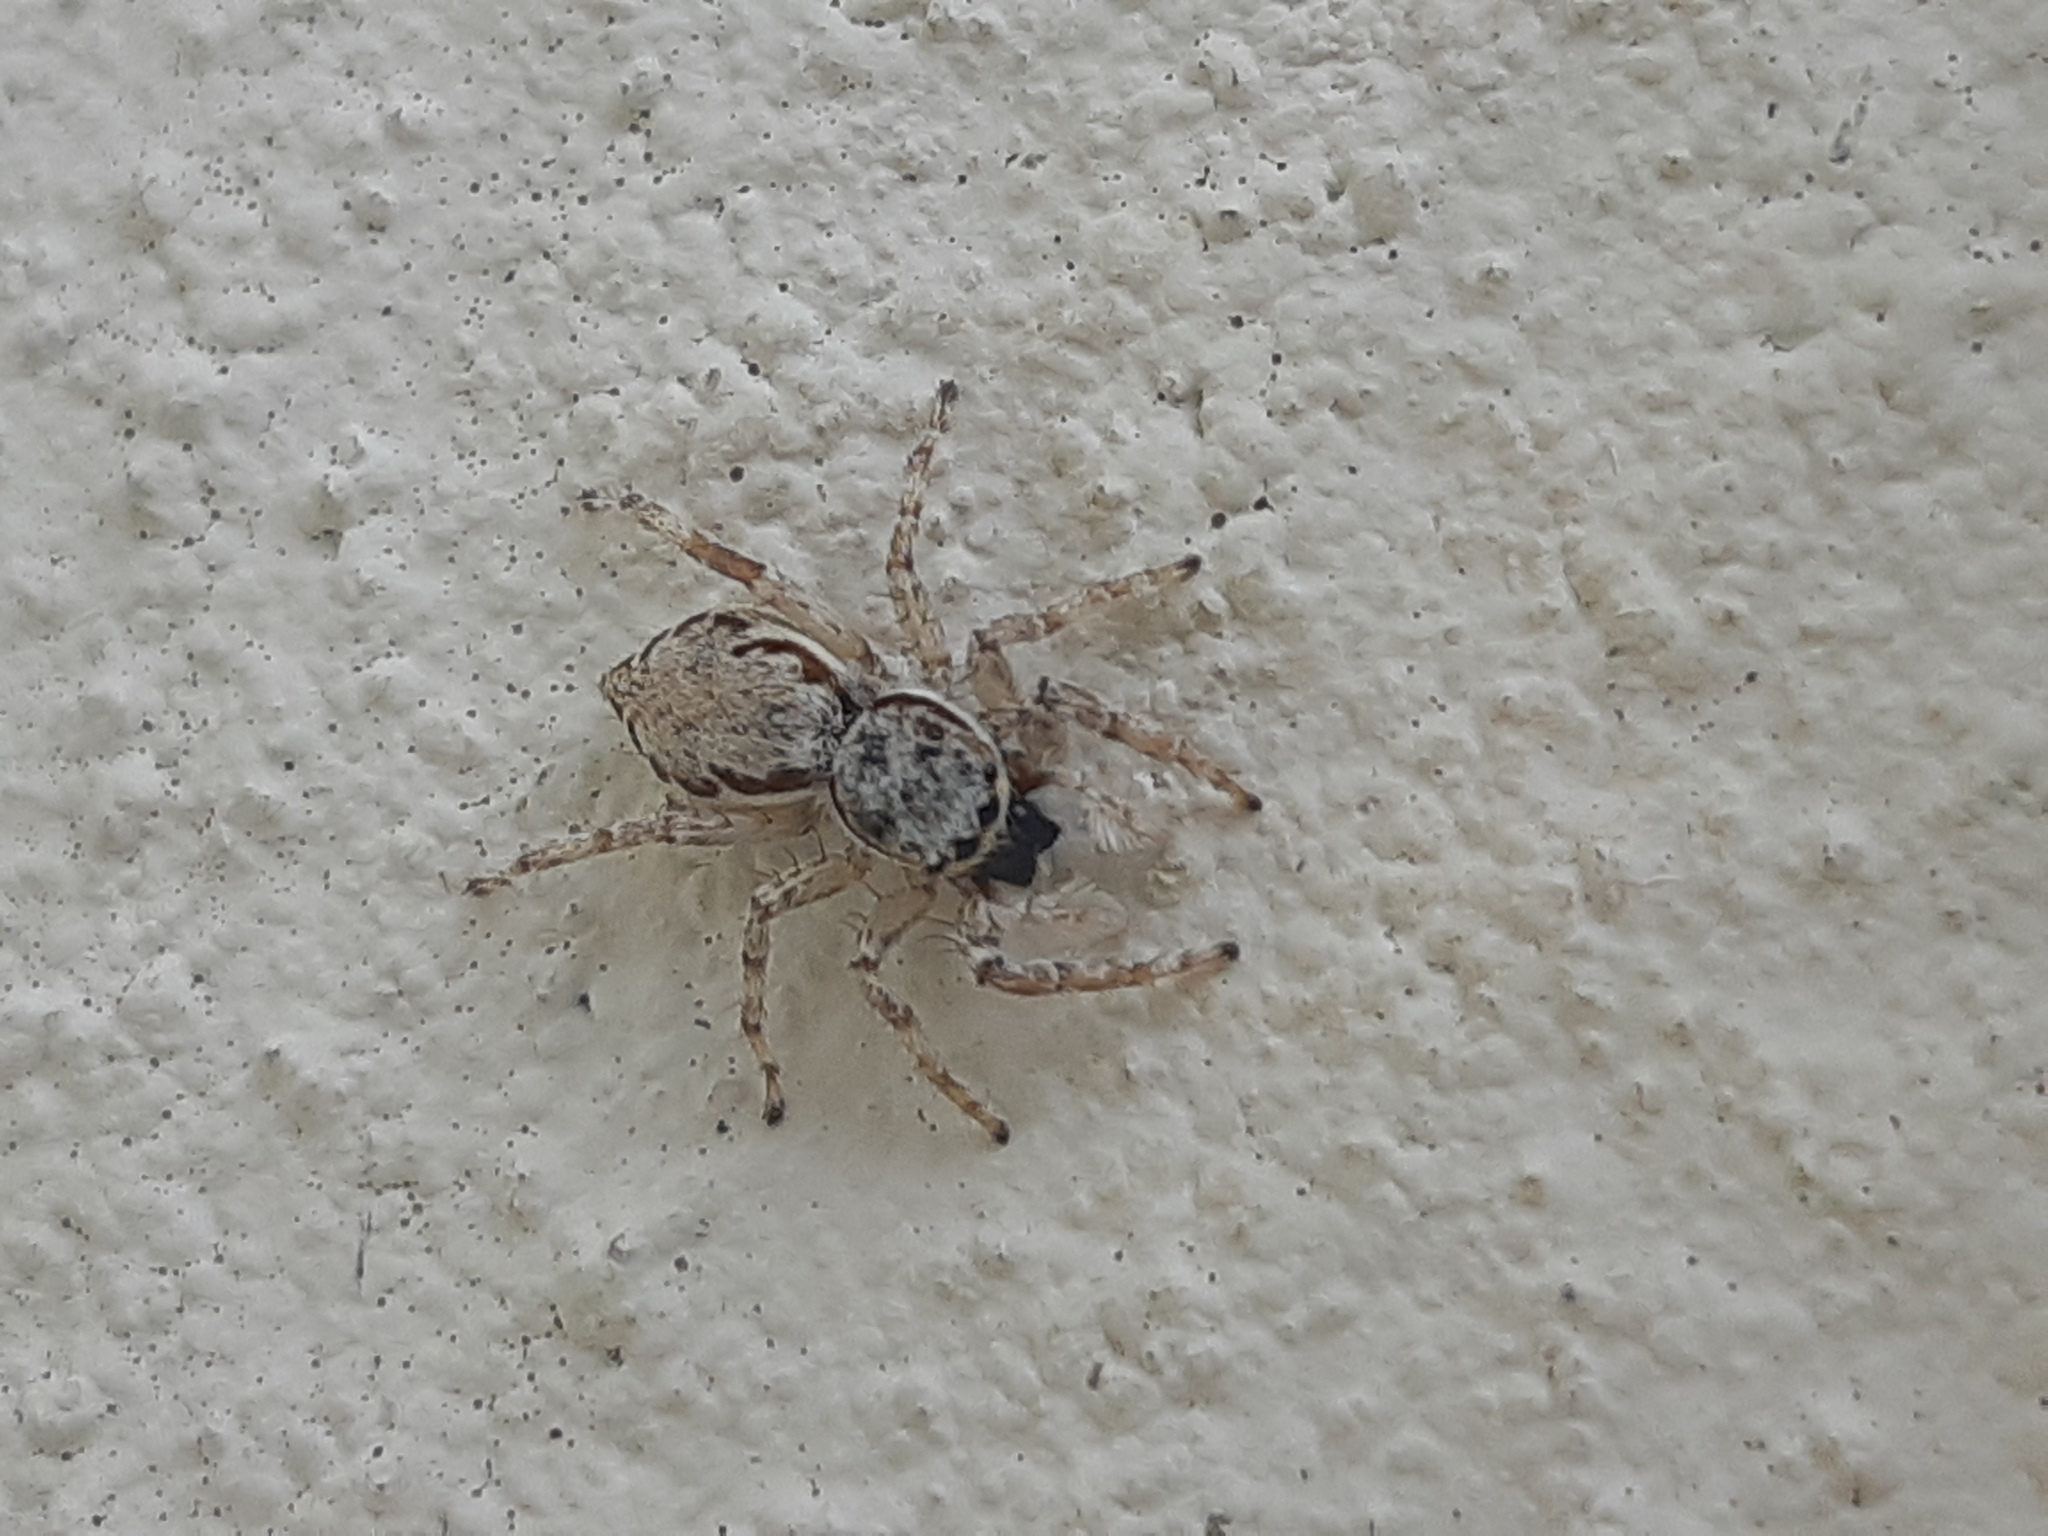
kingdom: Animalia
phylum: Arthropoda
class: Arachnida
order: Araneae
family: Salticidae
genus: Menemerus
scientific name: Menemerus bivittatus
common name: Gray wall jumper
